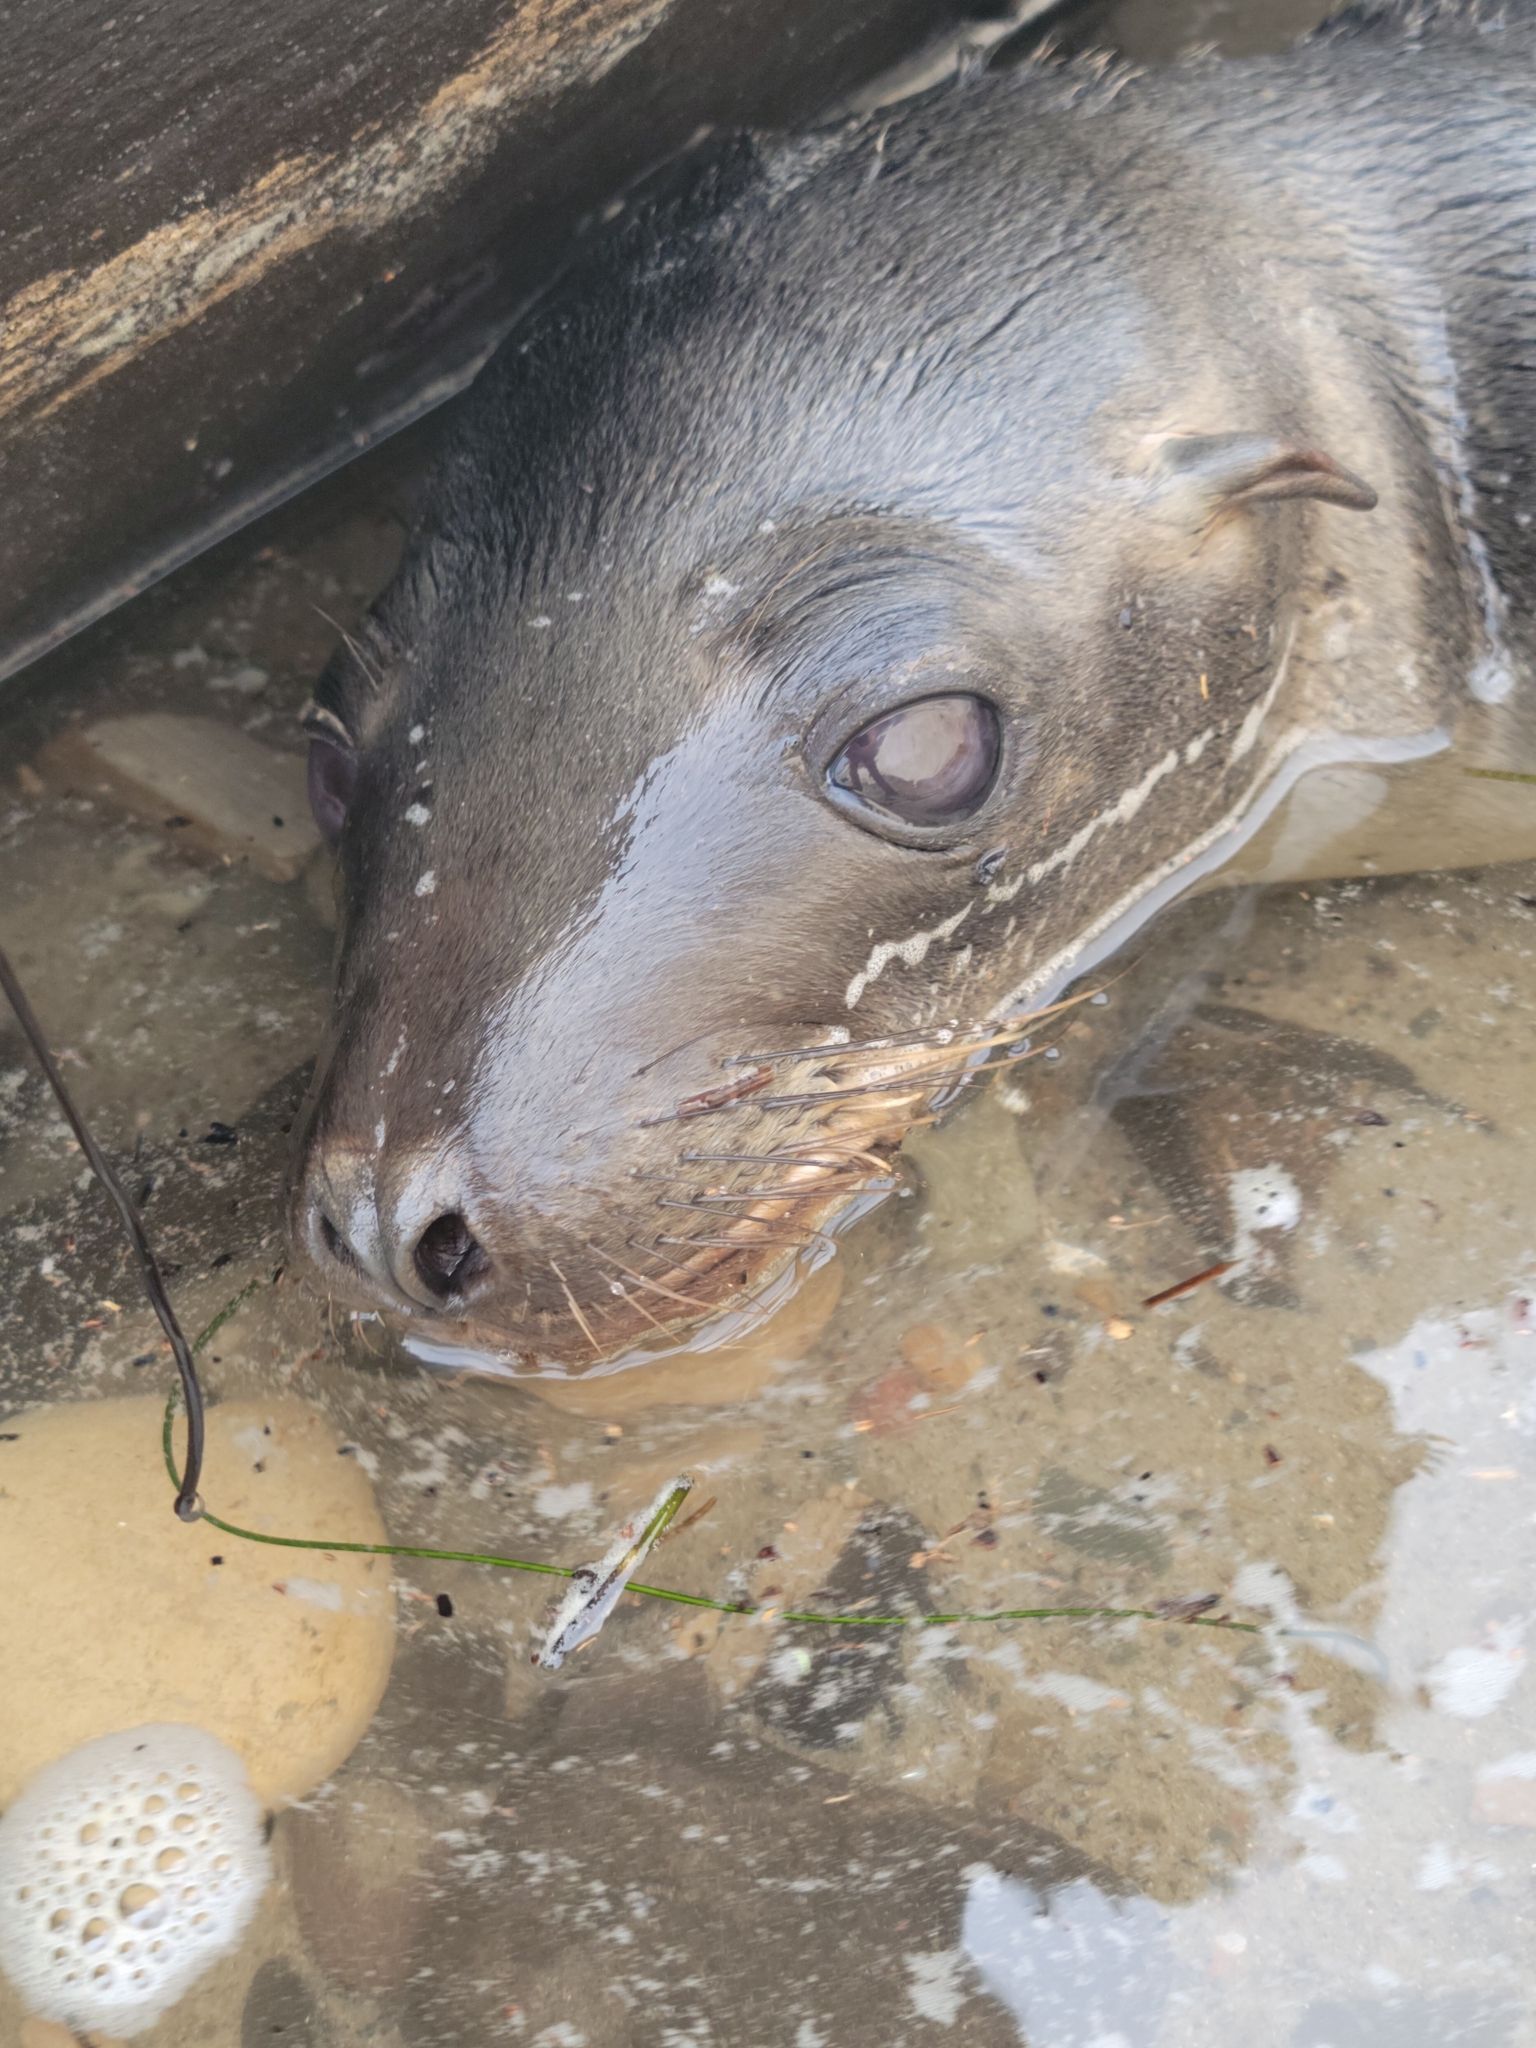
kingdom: Animalia
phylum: Chordata
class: Mammalia
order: Carnivora
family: Otariidae
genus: Zalophus
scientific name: Zalophus californianus
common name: California sea lion
